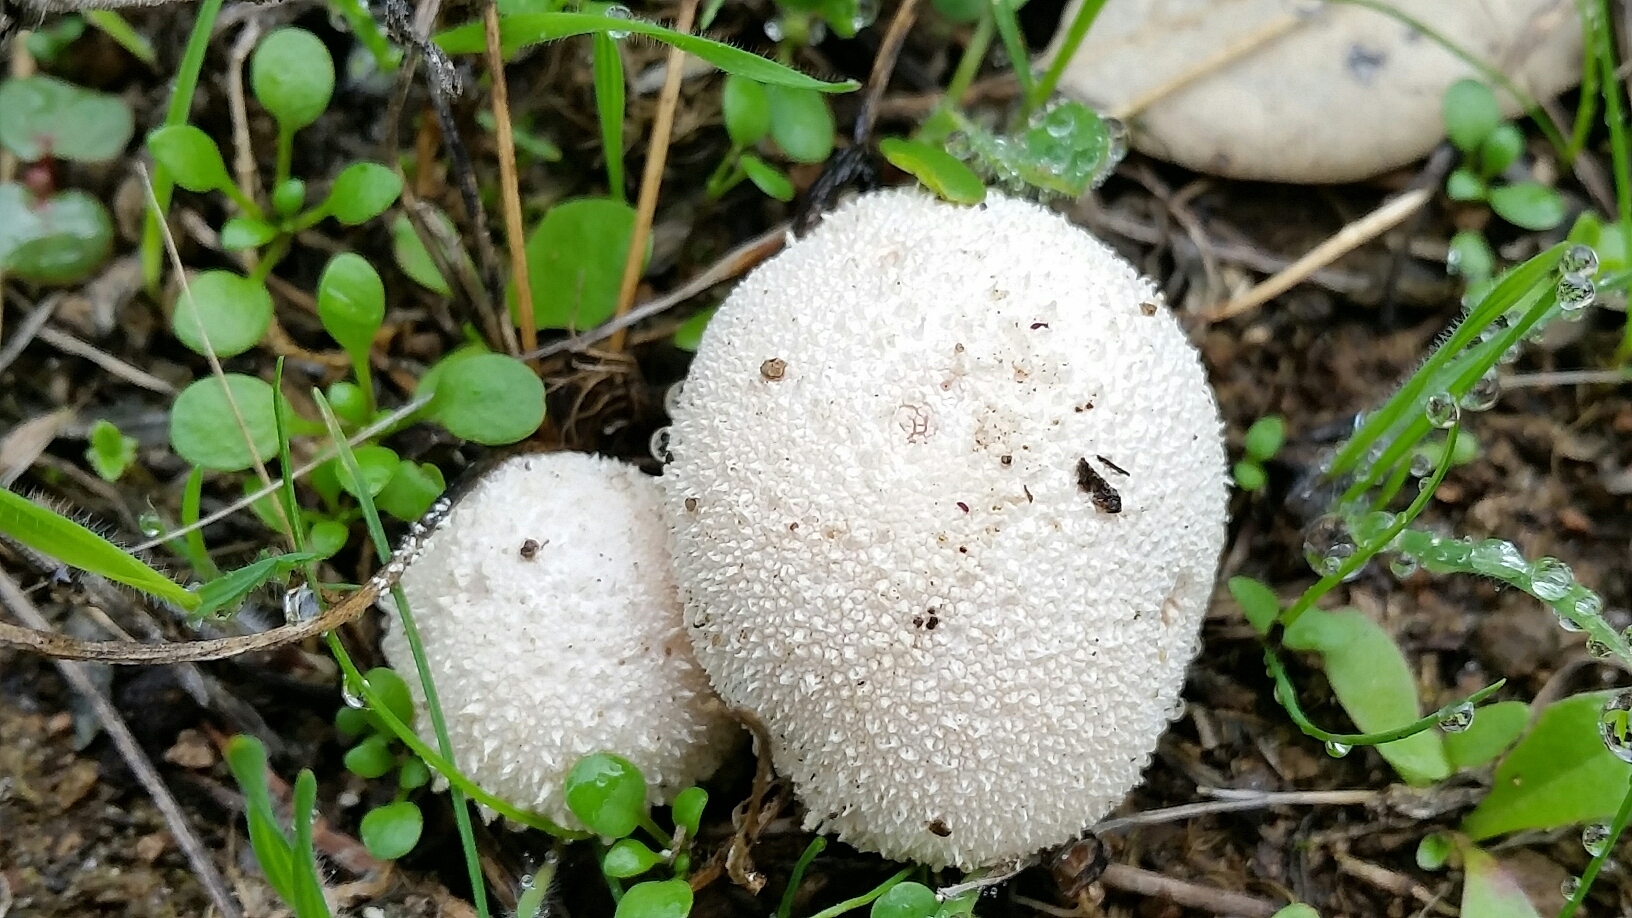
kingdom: Fungi
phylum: Basidiomycota
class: Agaricomycetes
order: Agaricales
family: Lycoperdaceae
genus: Lycoperdon
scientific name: Lycoperdon perlatum
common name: Common puffball
